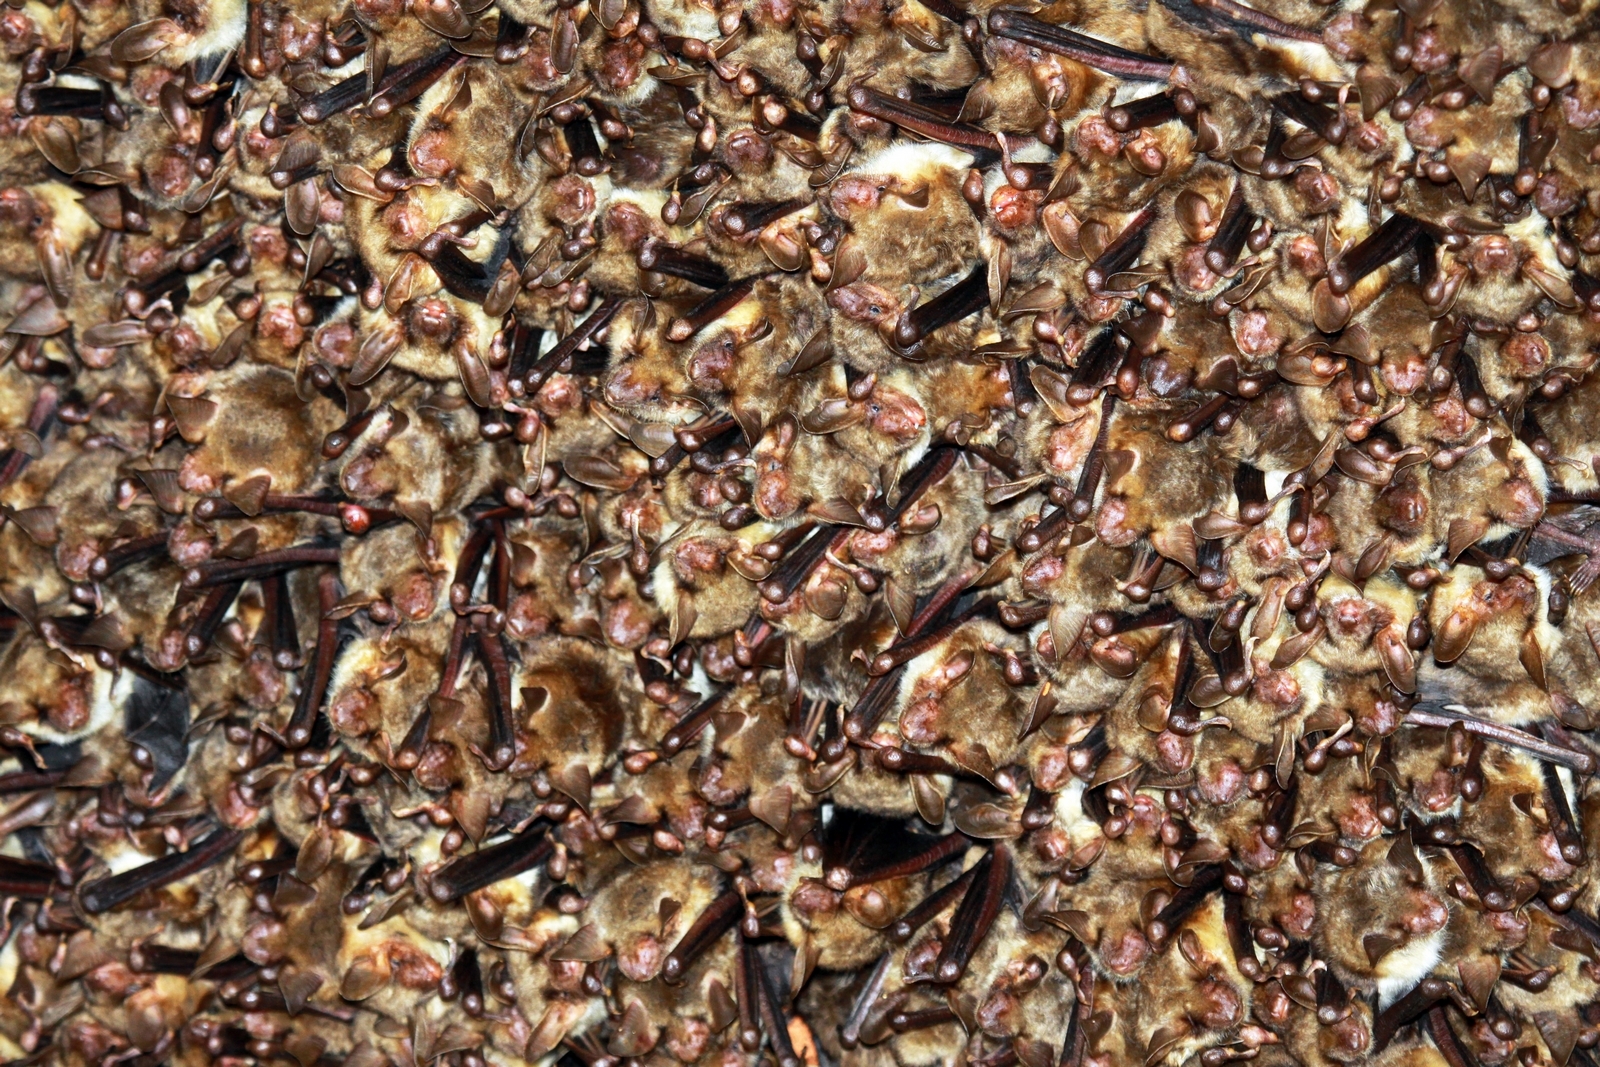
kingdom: Animalia
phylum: Chordata
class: Mammalia
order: Chiroptera
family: Vespertilionidae
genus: Myotis
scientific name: Myotis myotis
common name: Greater mouse-eared bat
